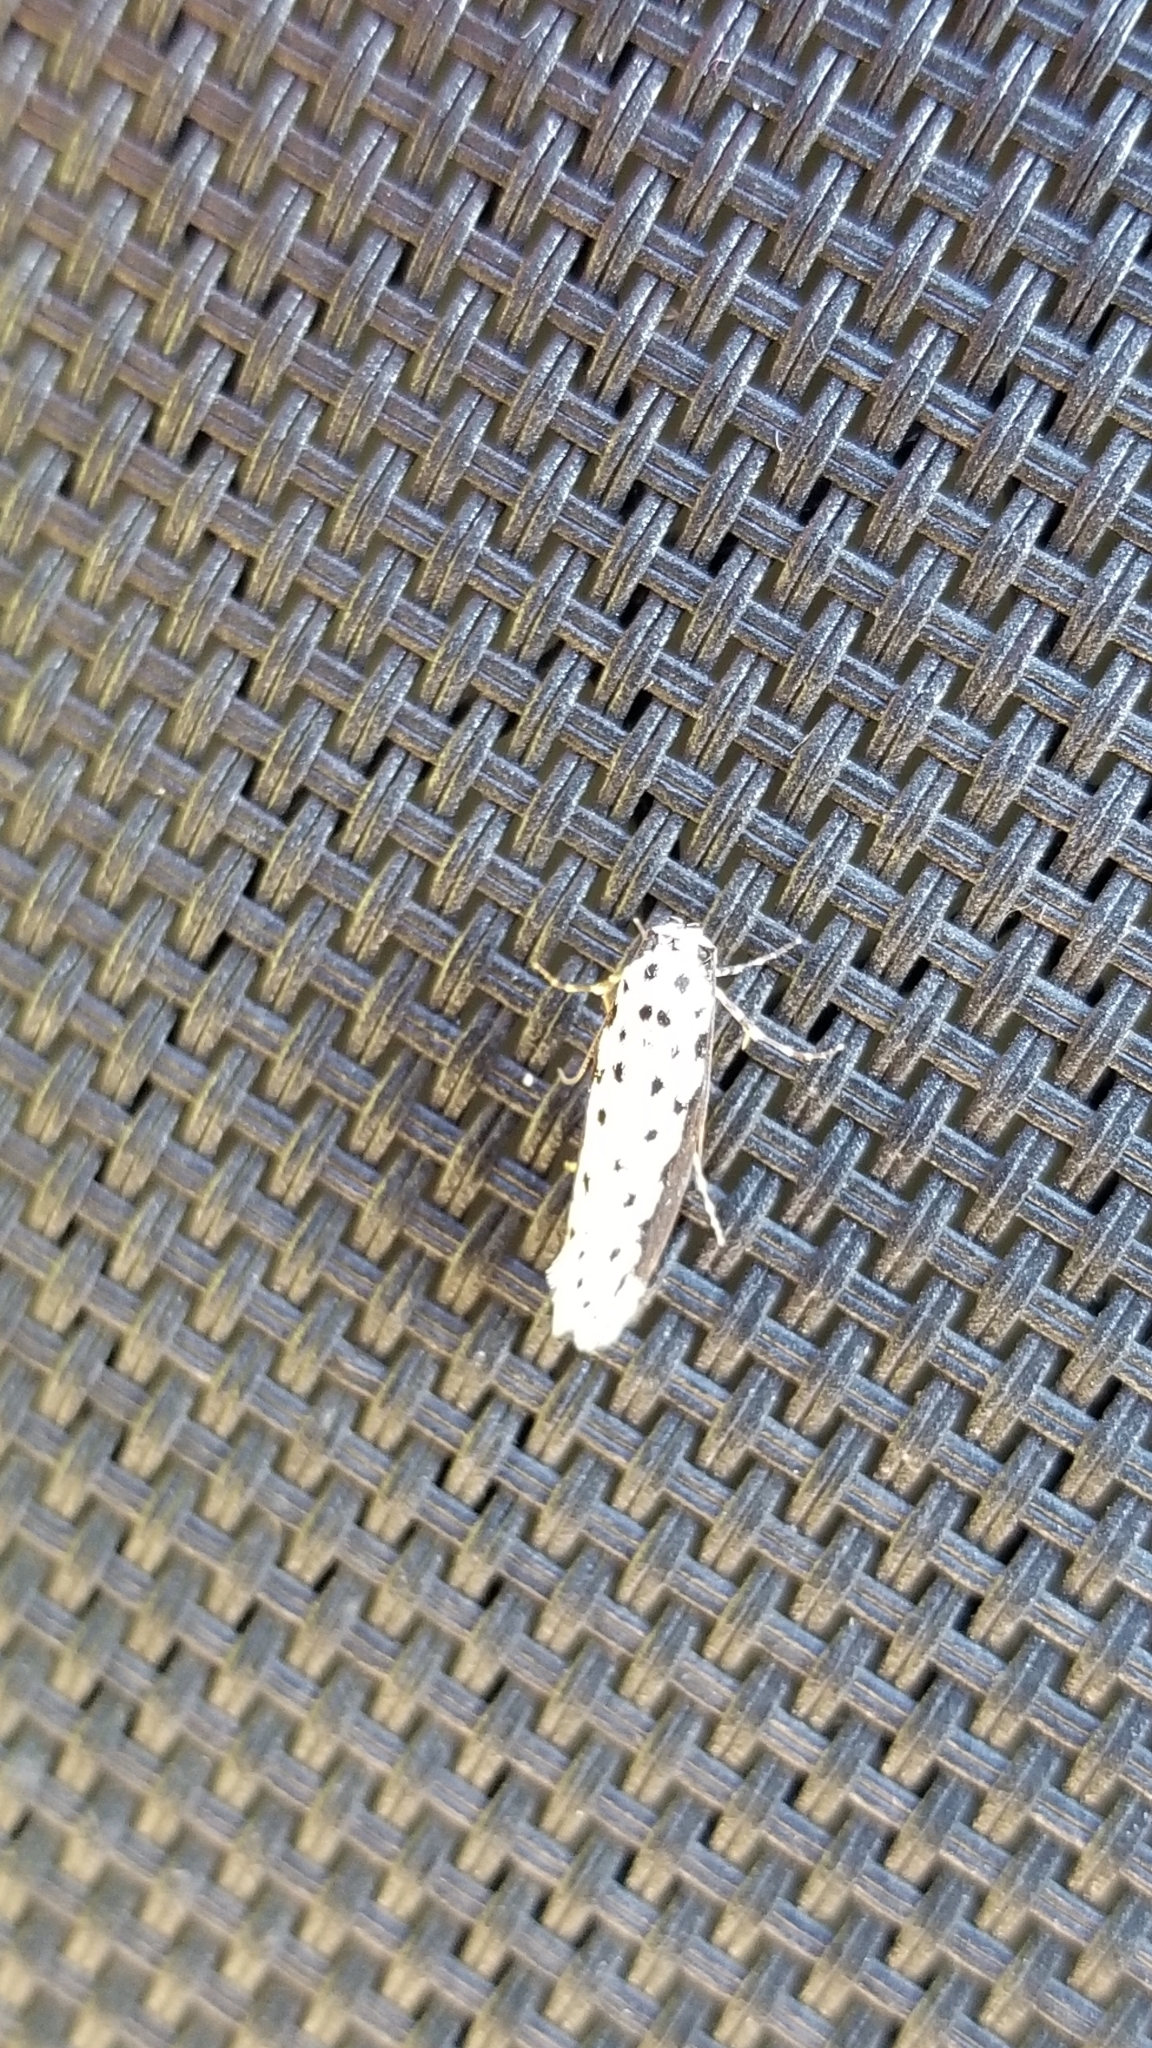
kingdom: Animalia
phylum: Arthropoda
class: Insecta
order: Lepidoptera
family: Ethmiidae
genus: Ethmia
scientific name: Ethmia hagenella
